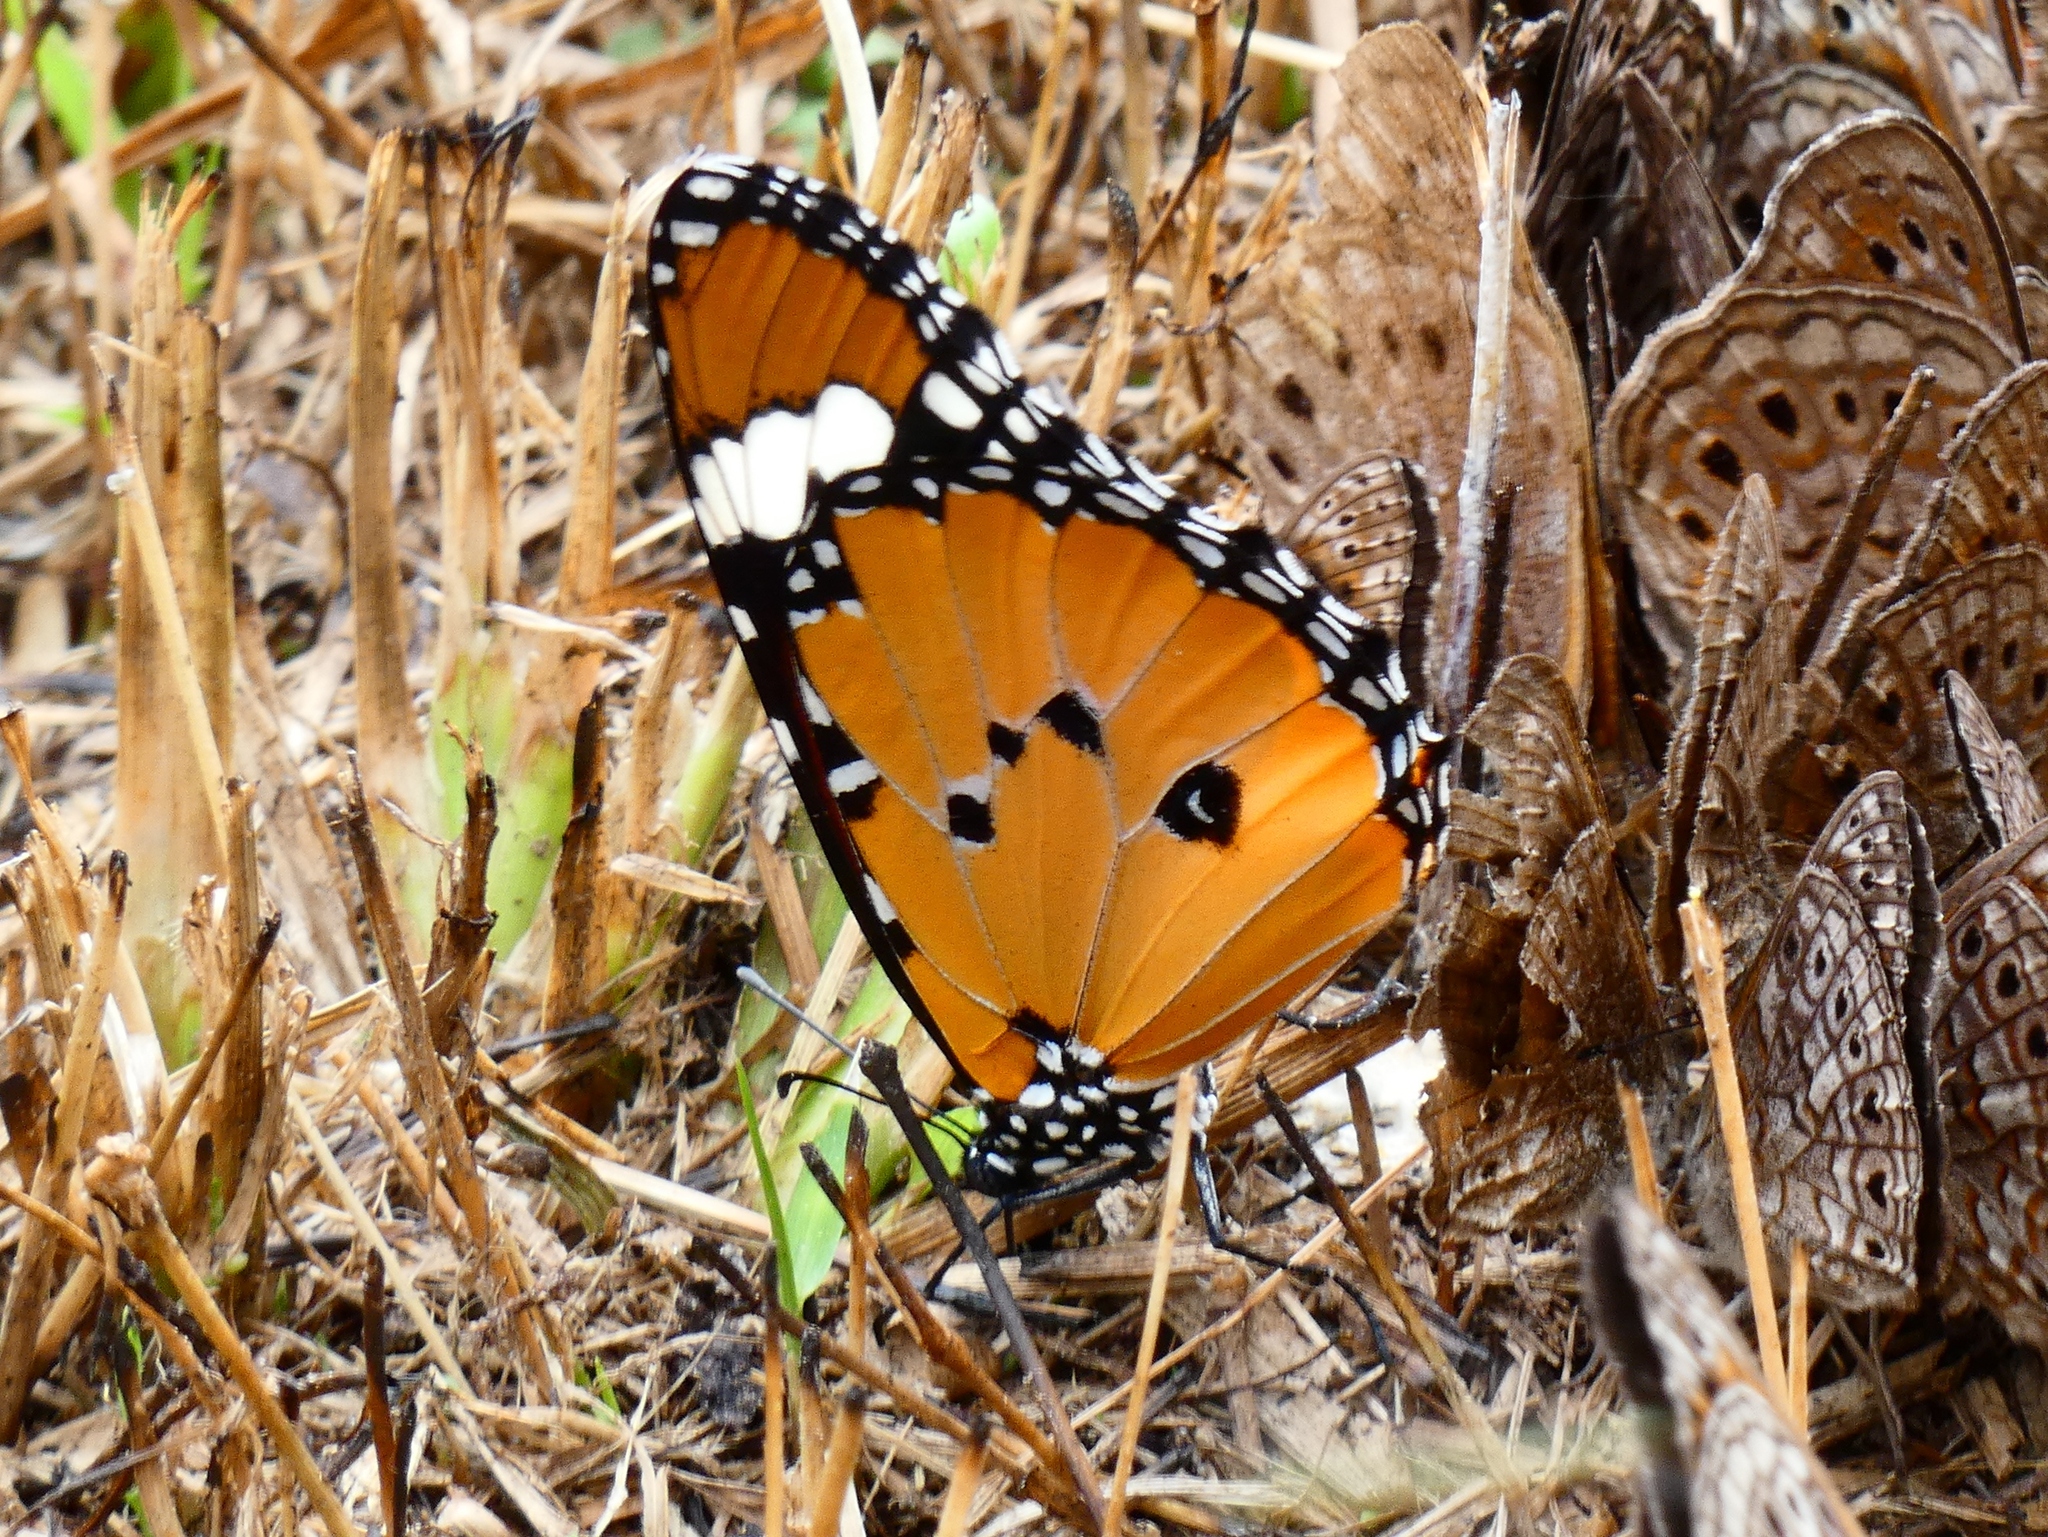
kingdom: Animalia
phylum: Arthropoda
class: Insecta
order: Lepidoptera
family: Nymphalidae
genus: Danaus
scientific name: Danaus chrysippus
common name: Plain tiger
